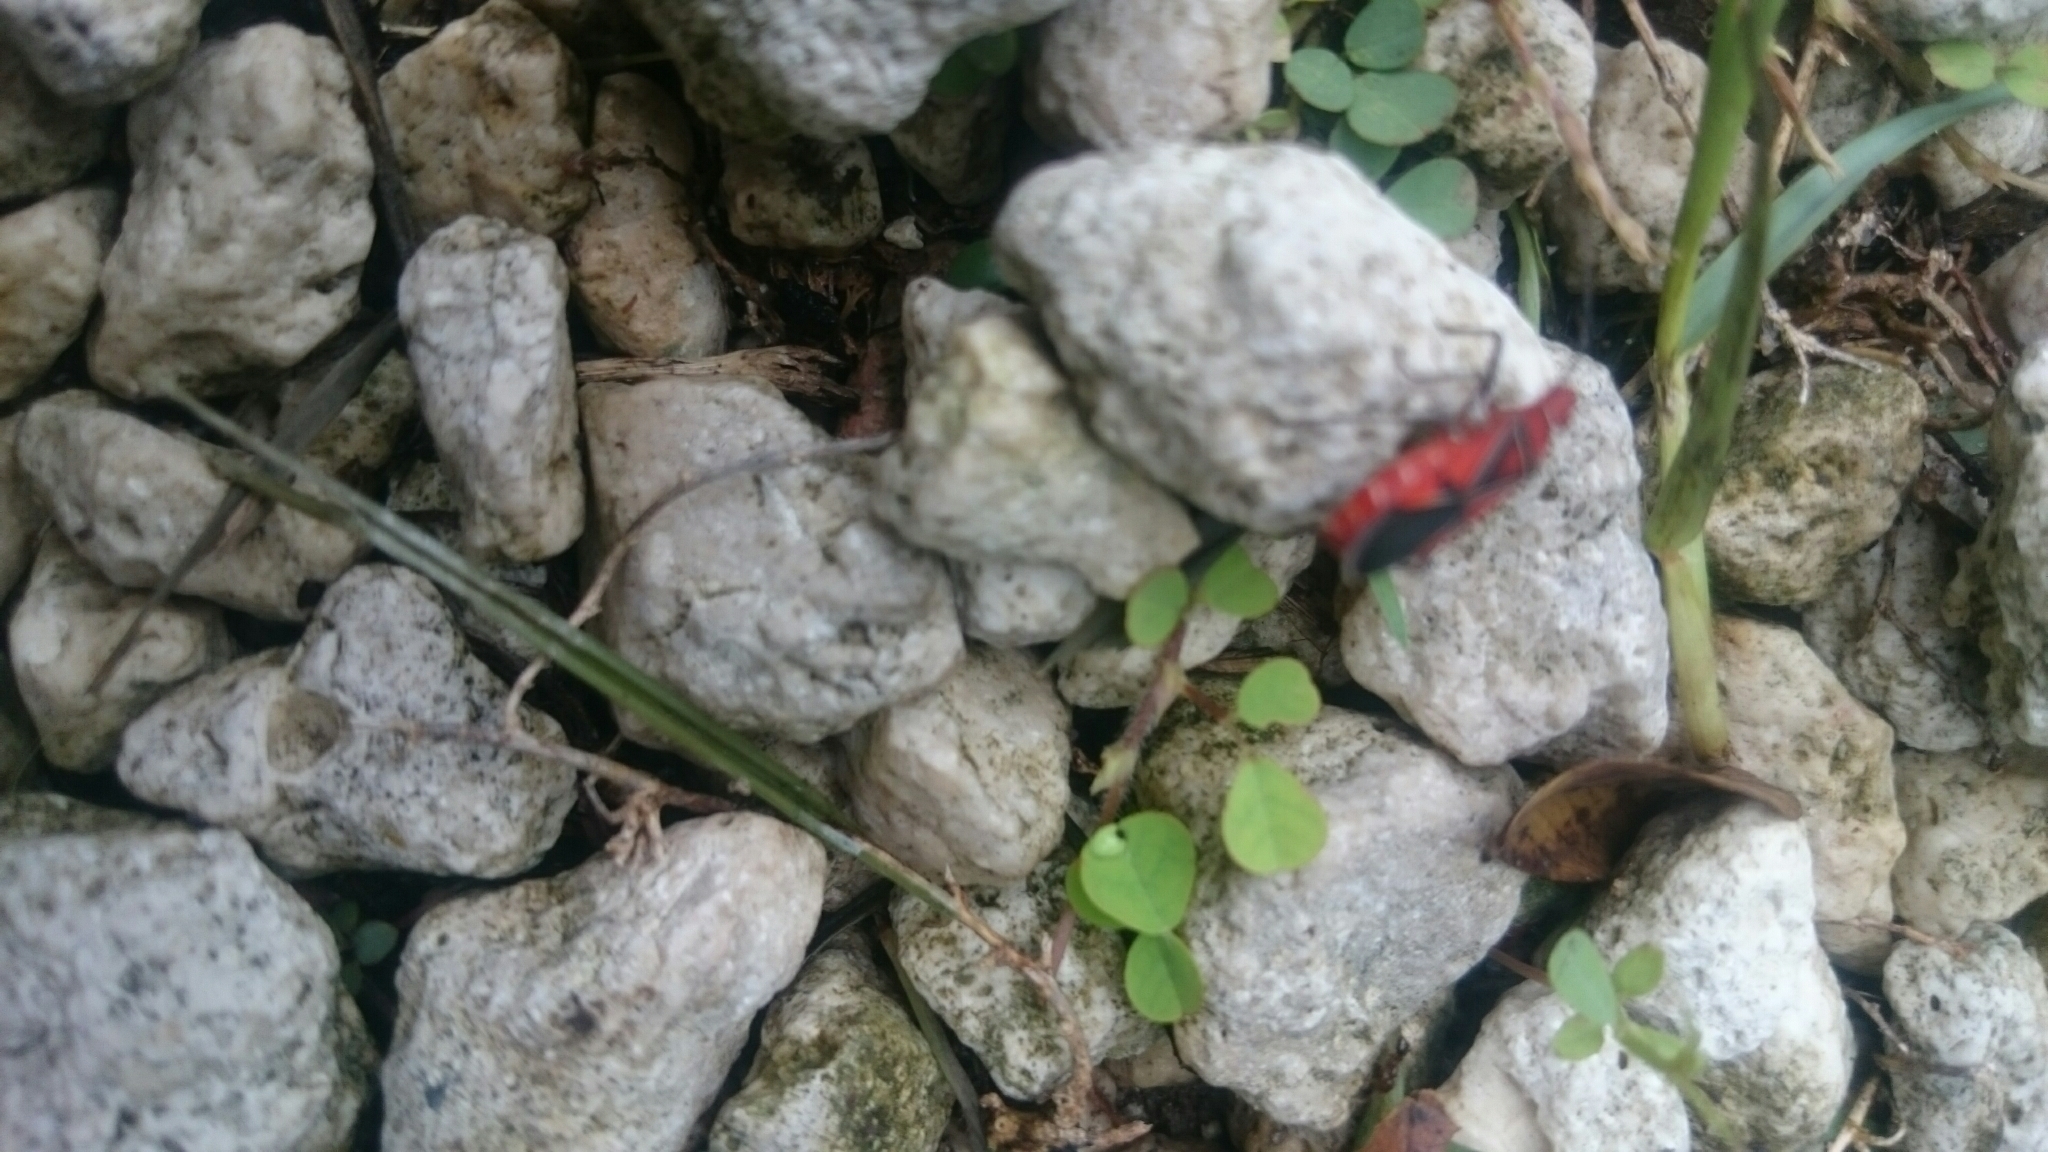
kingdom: Animalia
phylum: Arthropoda
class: Insecta
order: Hemiptera
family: Pyrrhocoridae
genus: Dysdercus
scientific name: Dysdercus andreae
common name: St. andrew's cotton stainer
